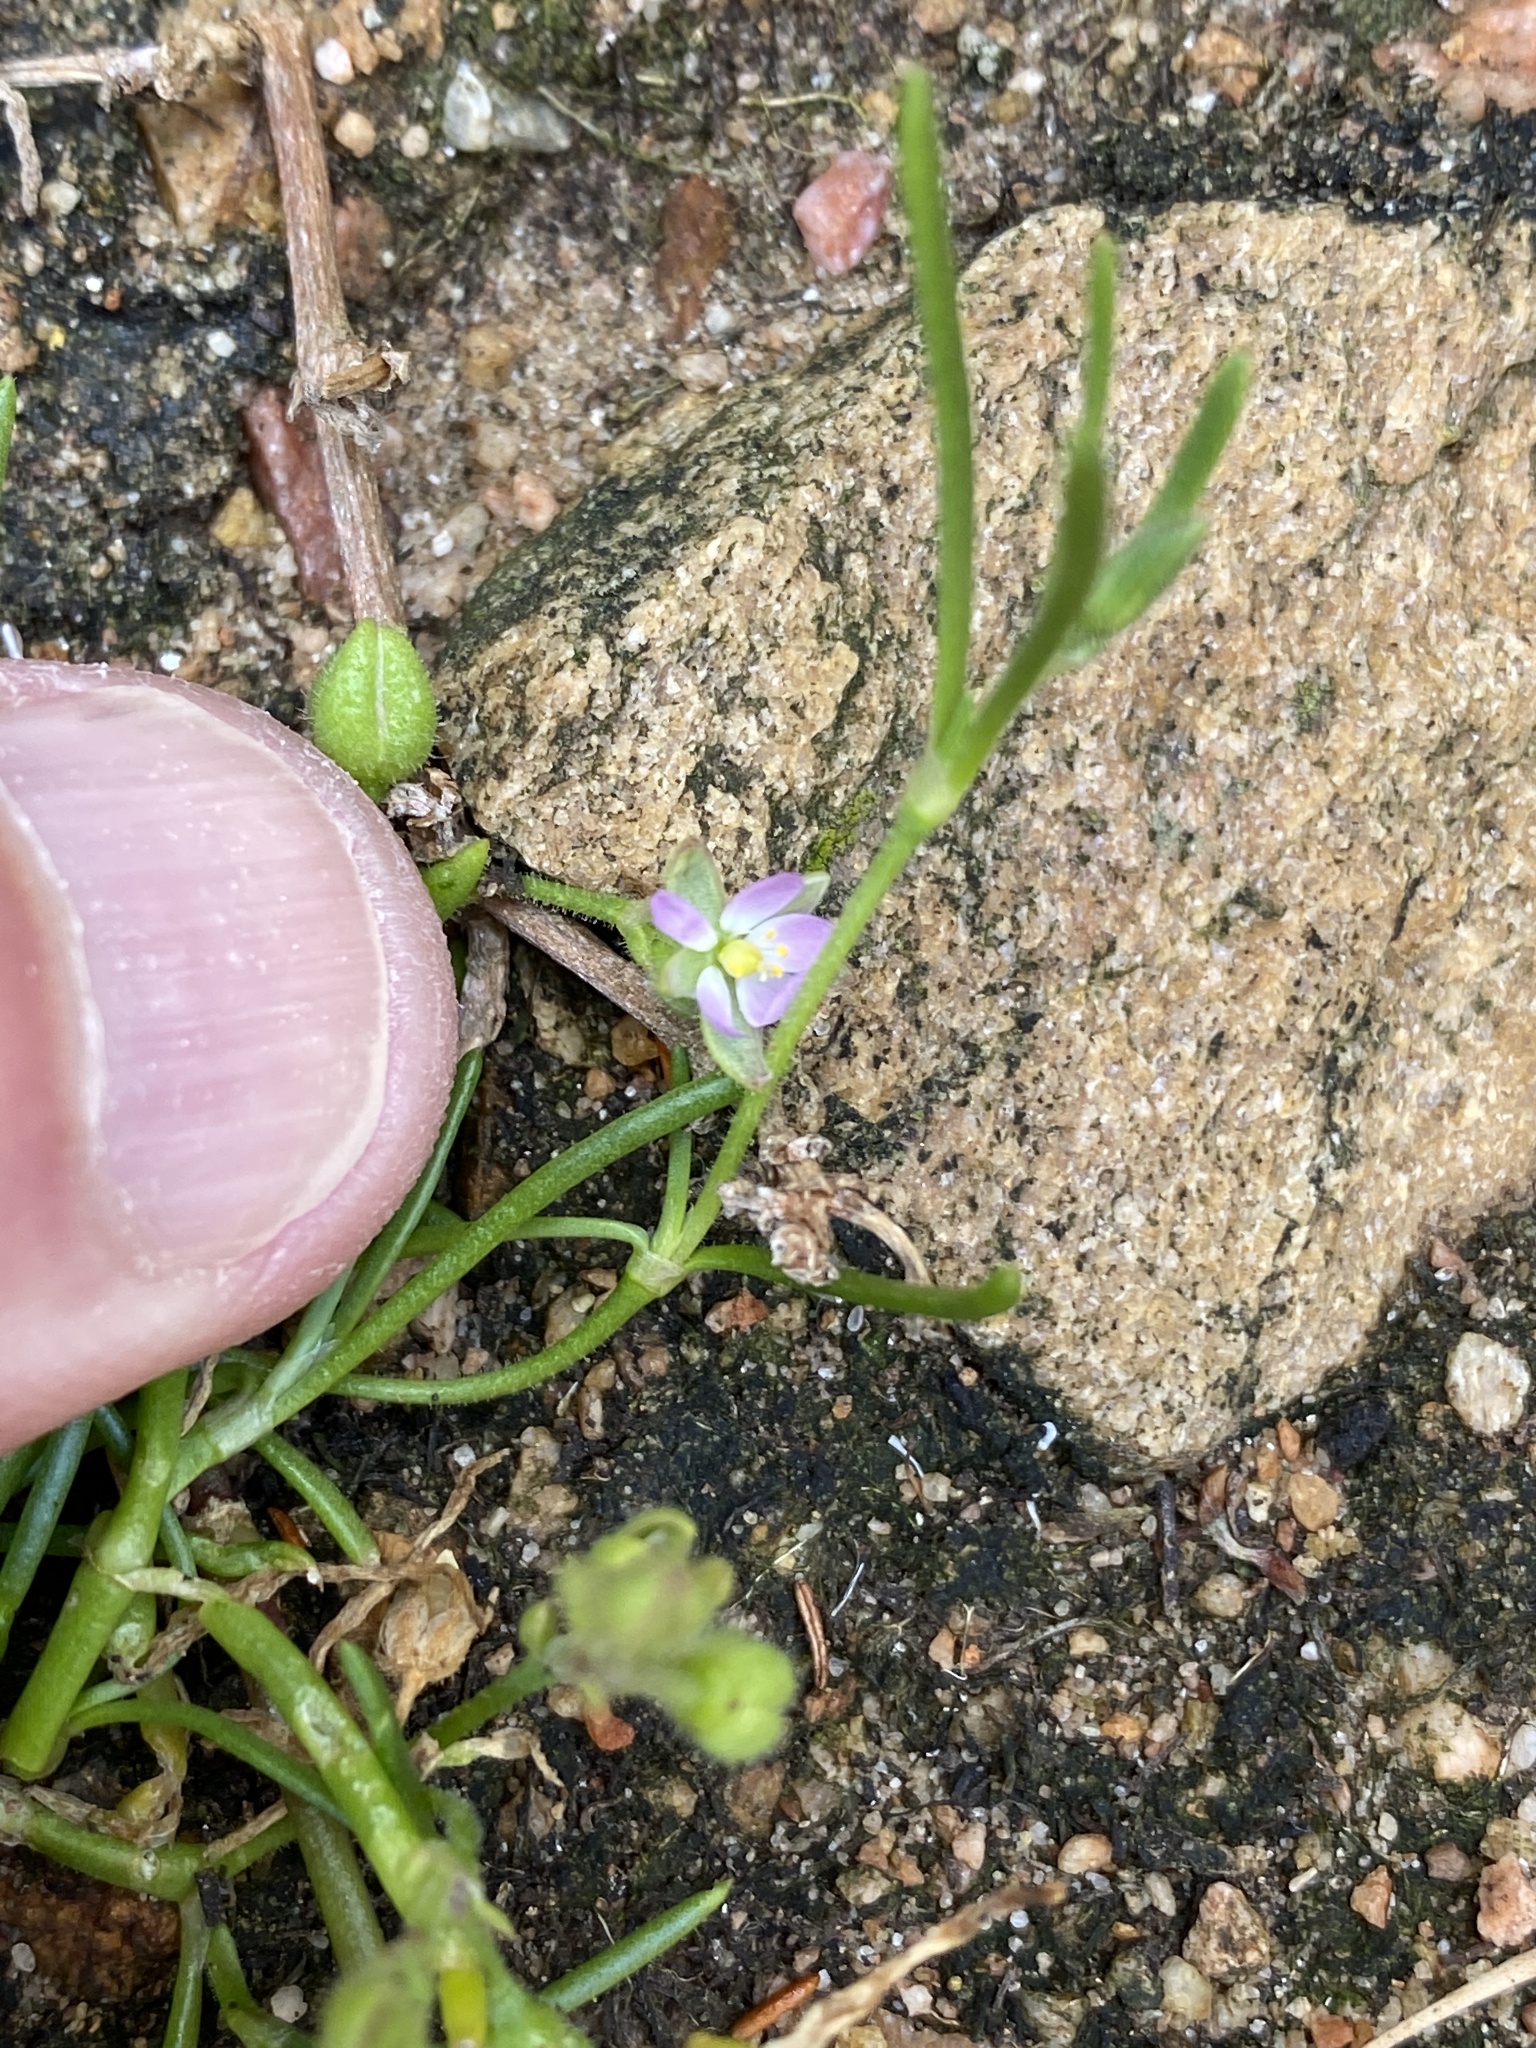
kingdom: Plantae
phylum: Tracheophyta
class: Magnoliopsida
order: Caryophyllales
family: Caryophyllaceae
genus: Spergularia
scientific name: Spergularia rubra
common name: Red sand-spurrey
